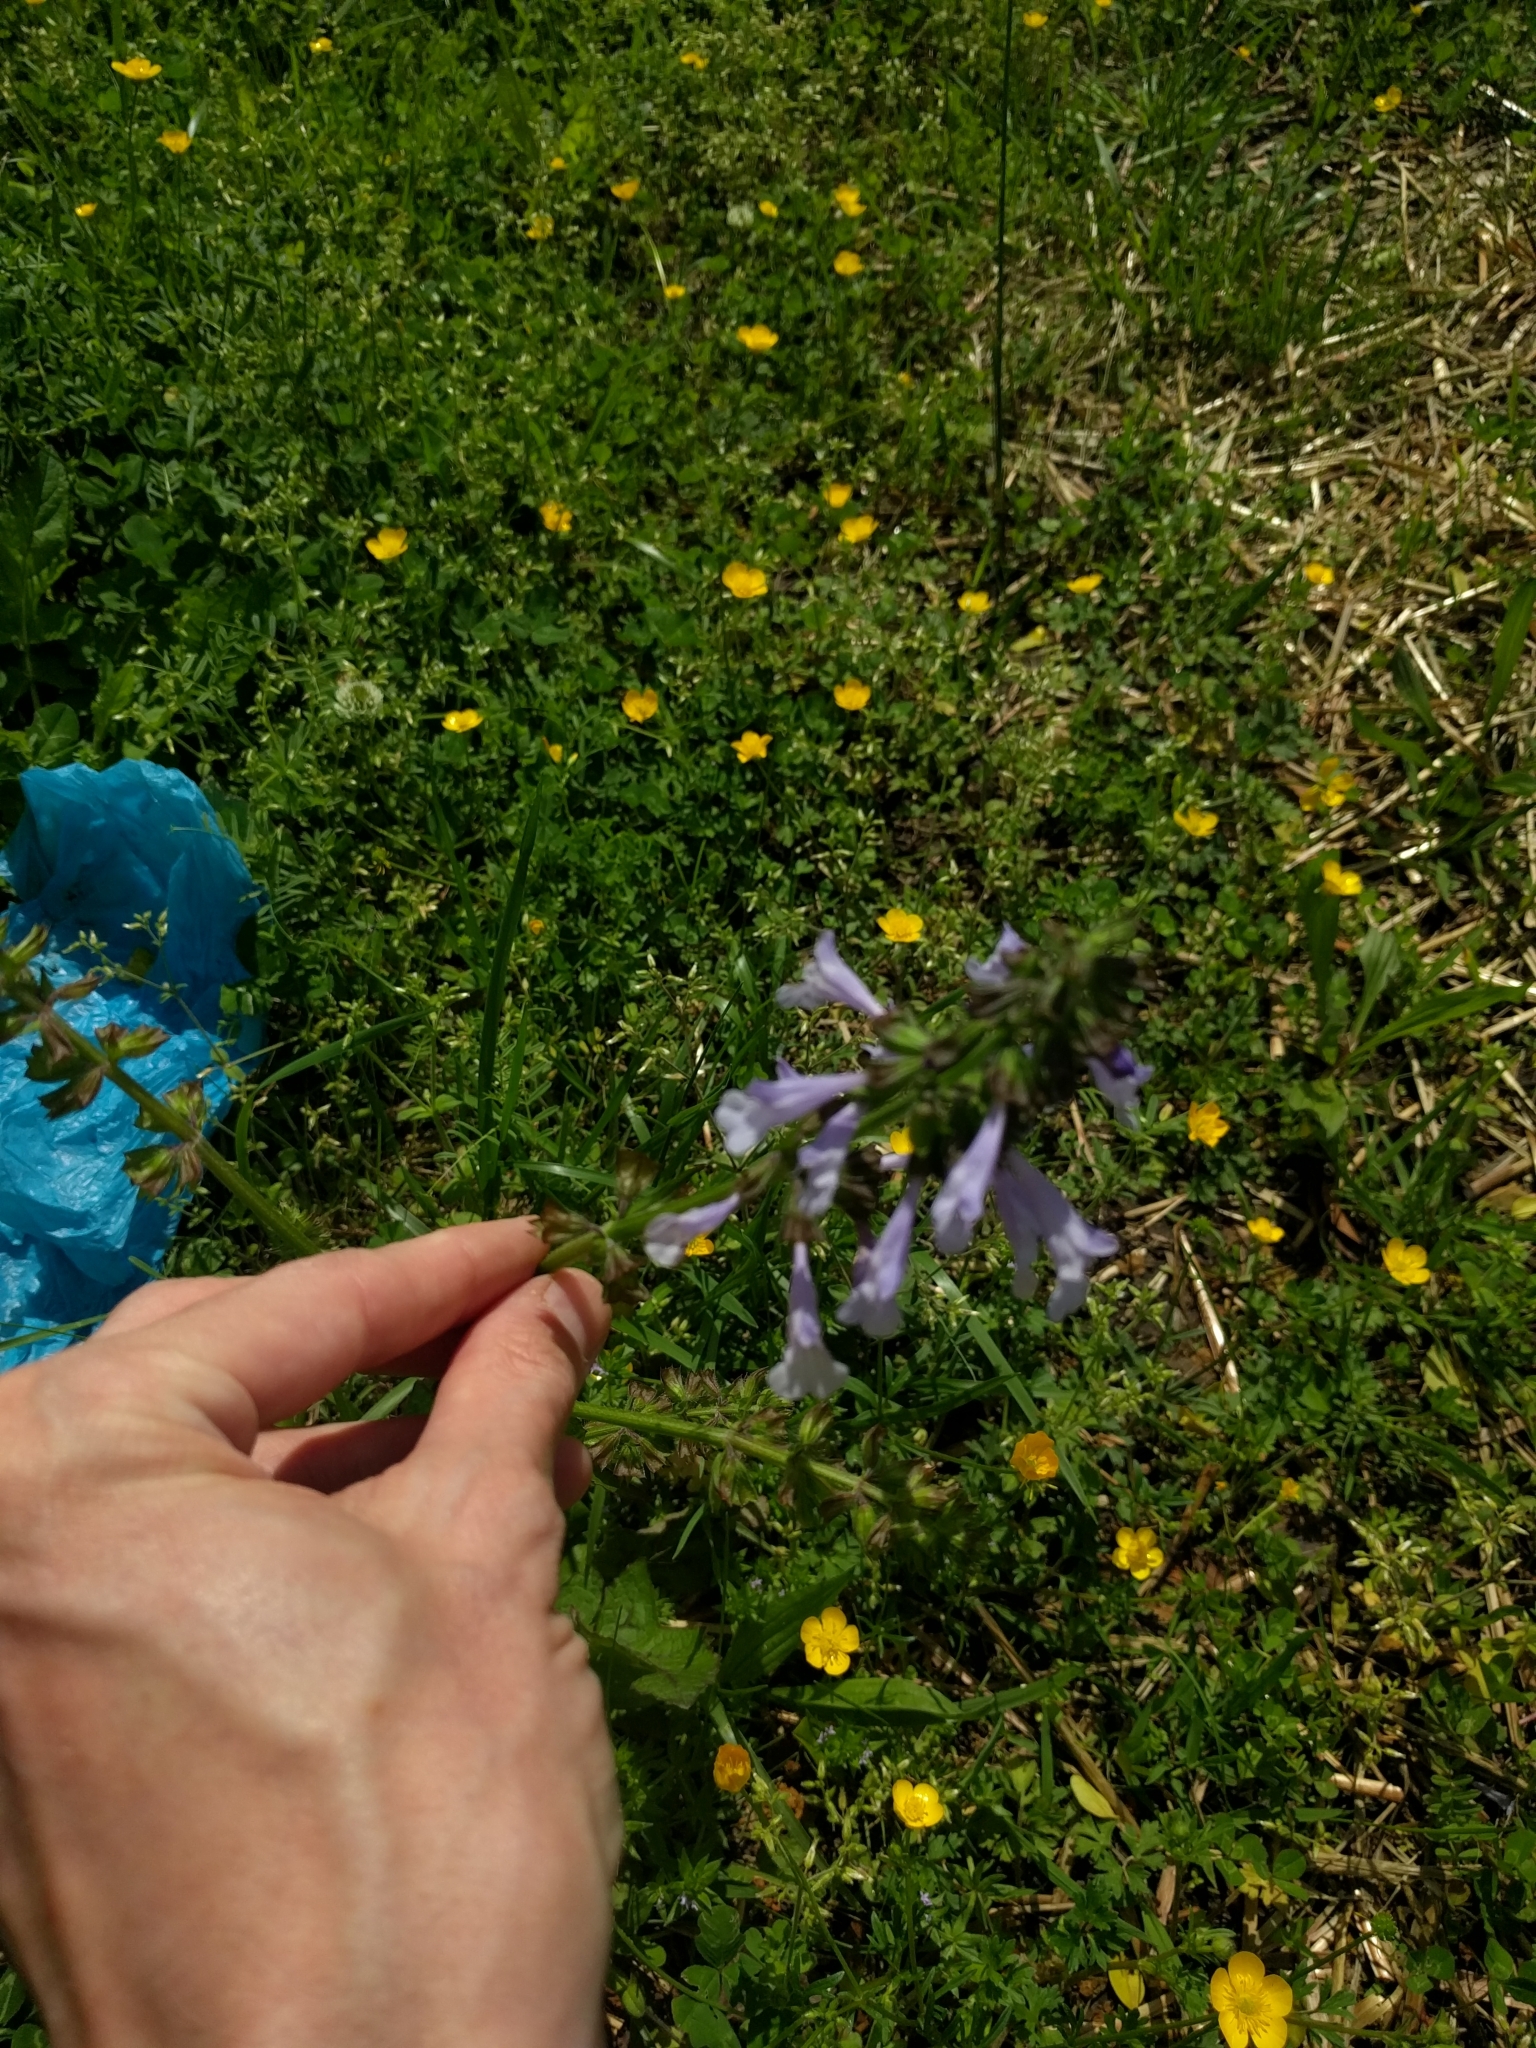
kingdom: Plantae
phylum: Tracheophyta
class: Magnoliopsida
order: Lamiales
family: Lamiaceae
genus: Salvia
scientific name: Salvia lyrata
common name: Cancerweed
